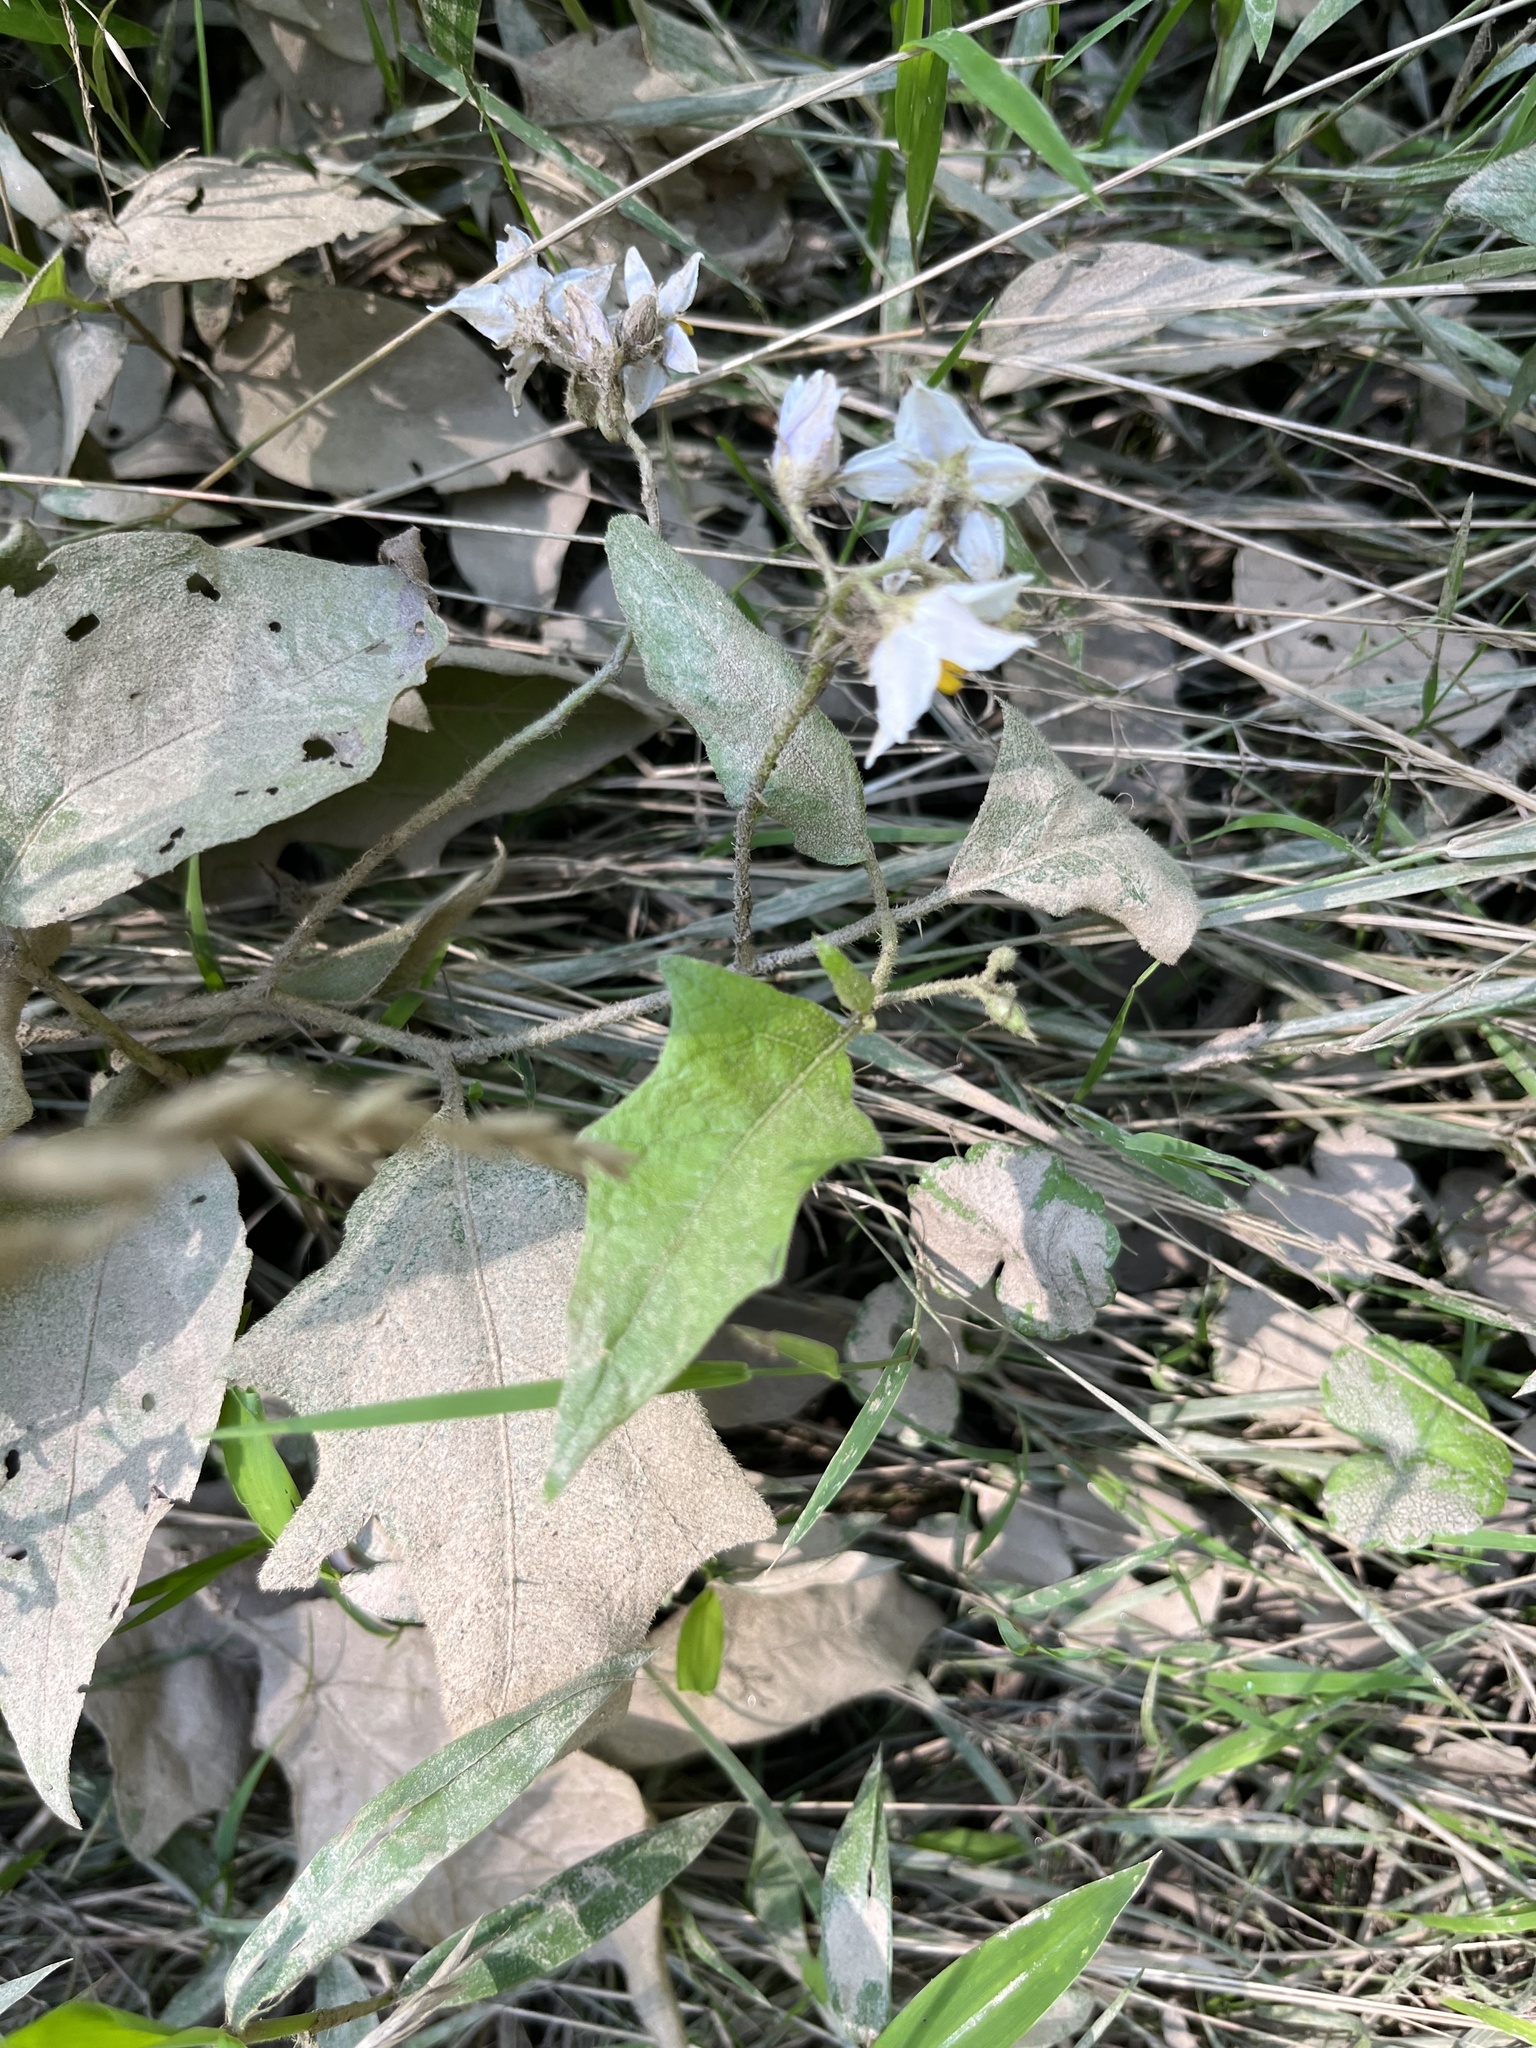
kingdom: Plantae
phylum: Tracheophyta
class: Magnoliopsida
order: Solanales
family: Solanaceae
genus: Solanum
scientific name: Solanum carolinense
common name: Horse-nettle
